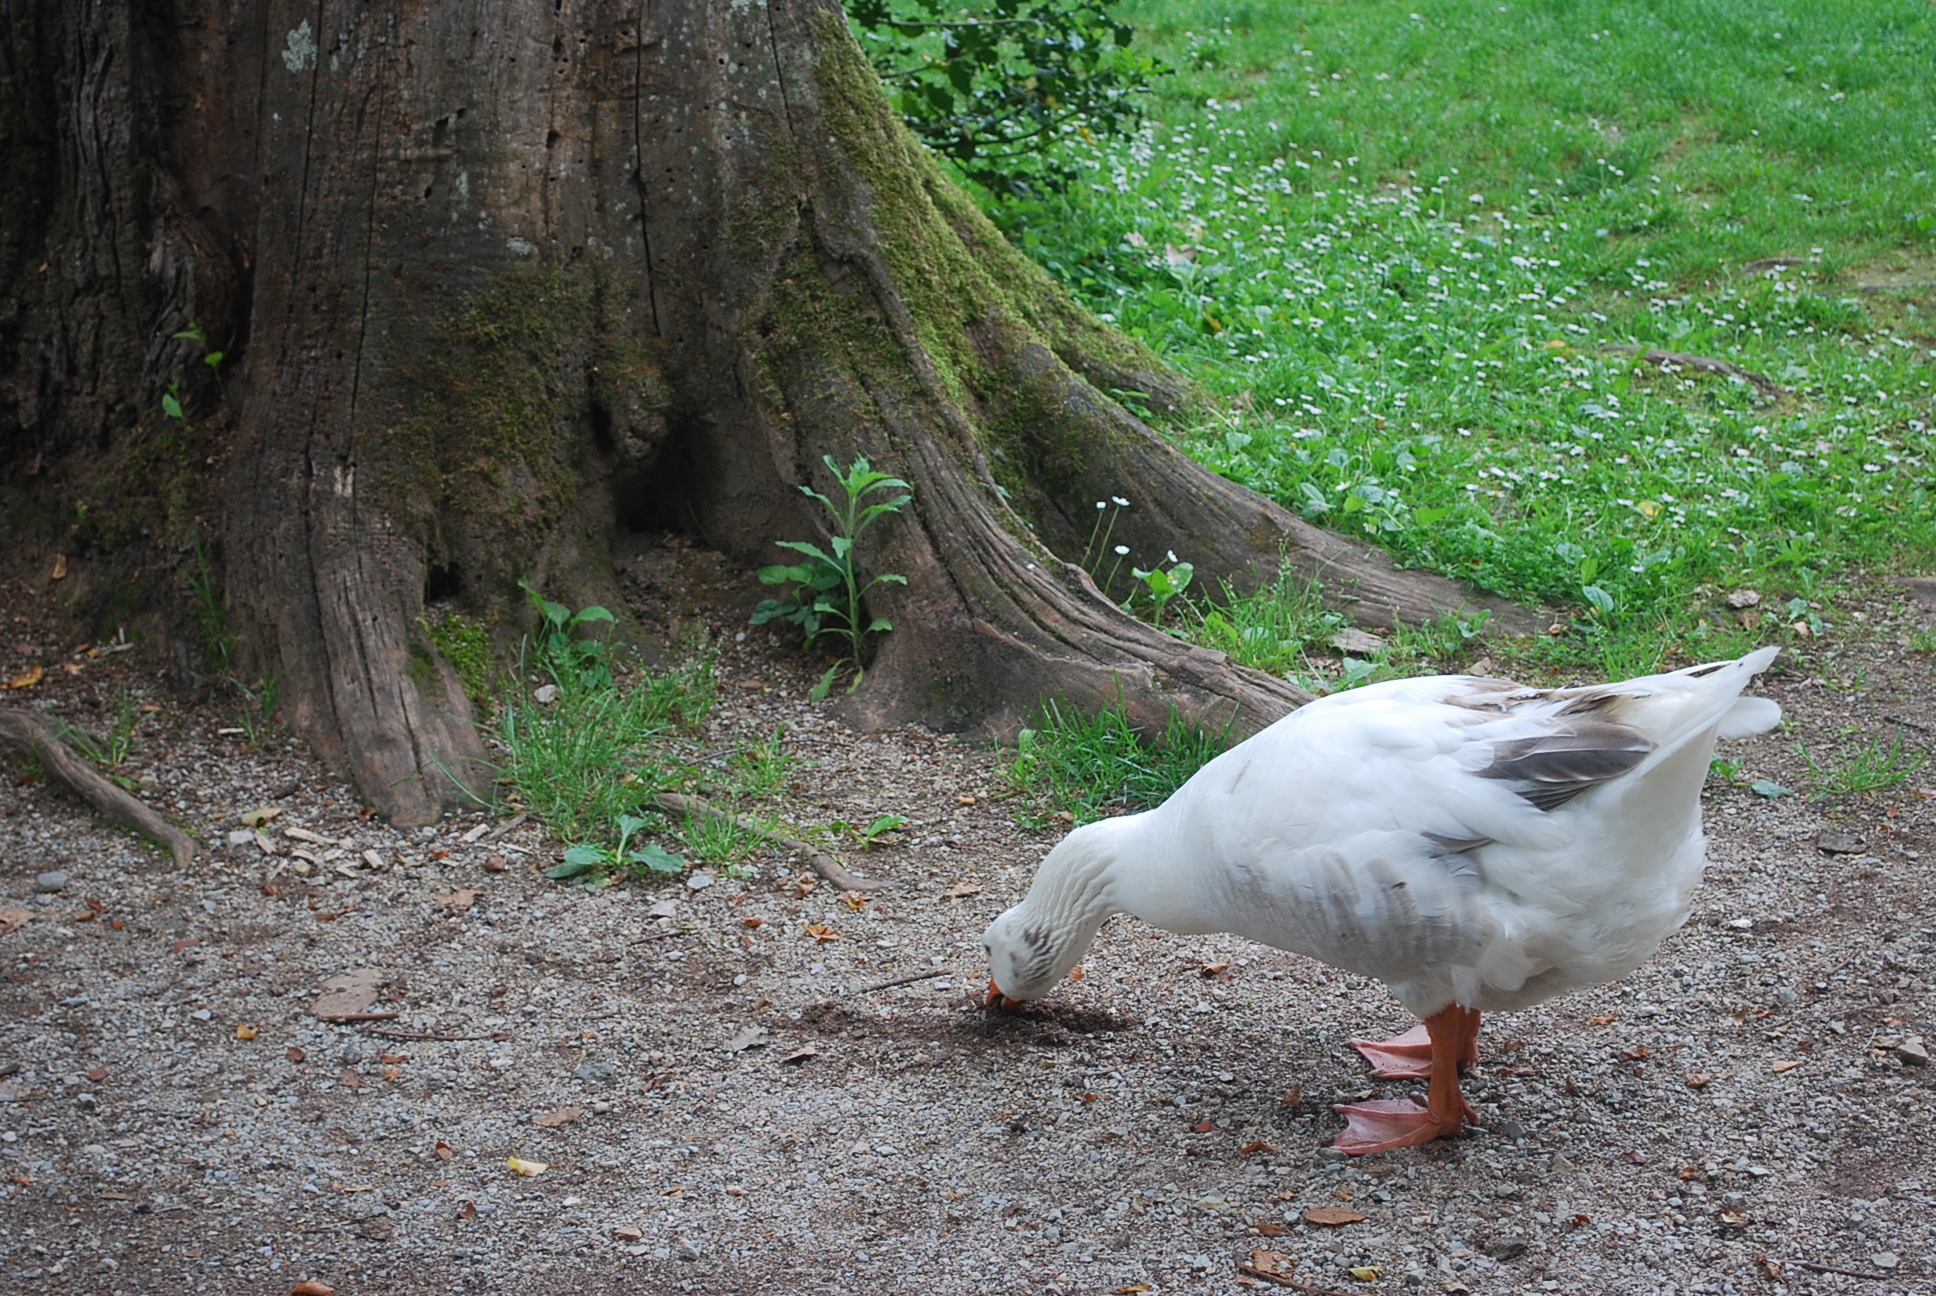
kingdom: Animalia
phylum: Chordata
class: Aves
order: Anseriformes
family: Anatidae
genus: Anser
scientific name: Anser anser
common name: Greylag goose
